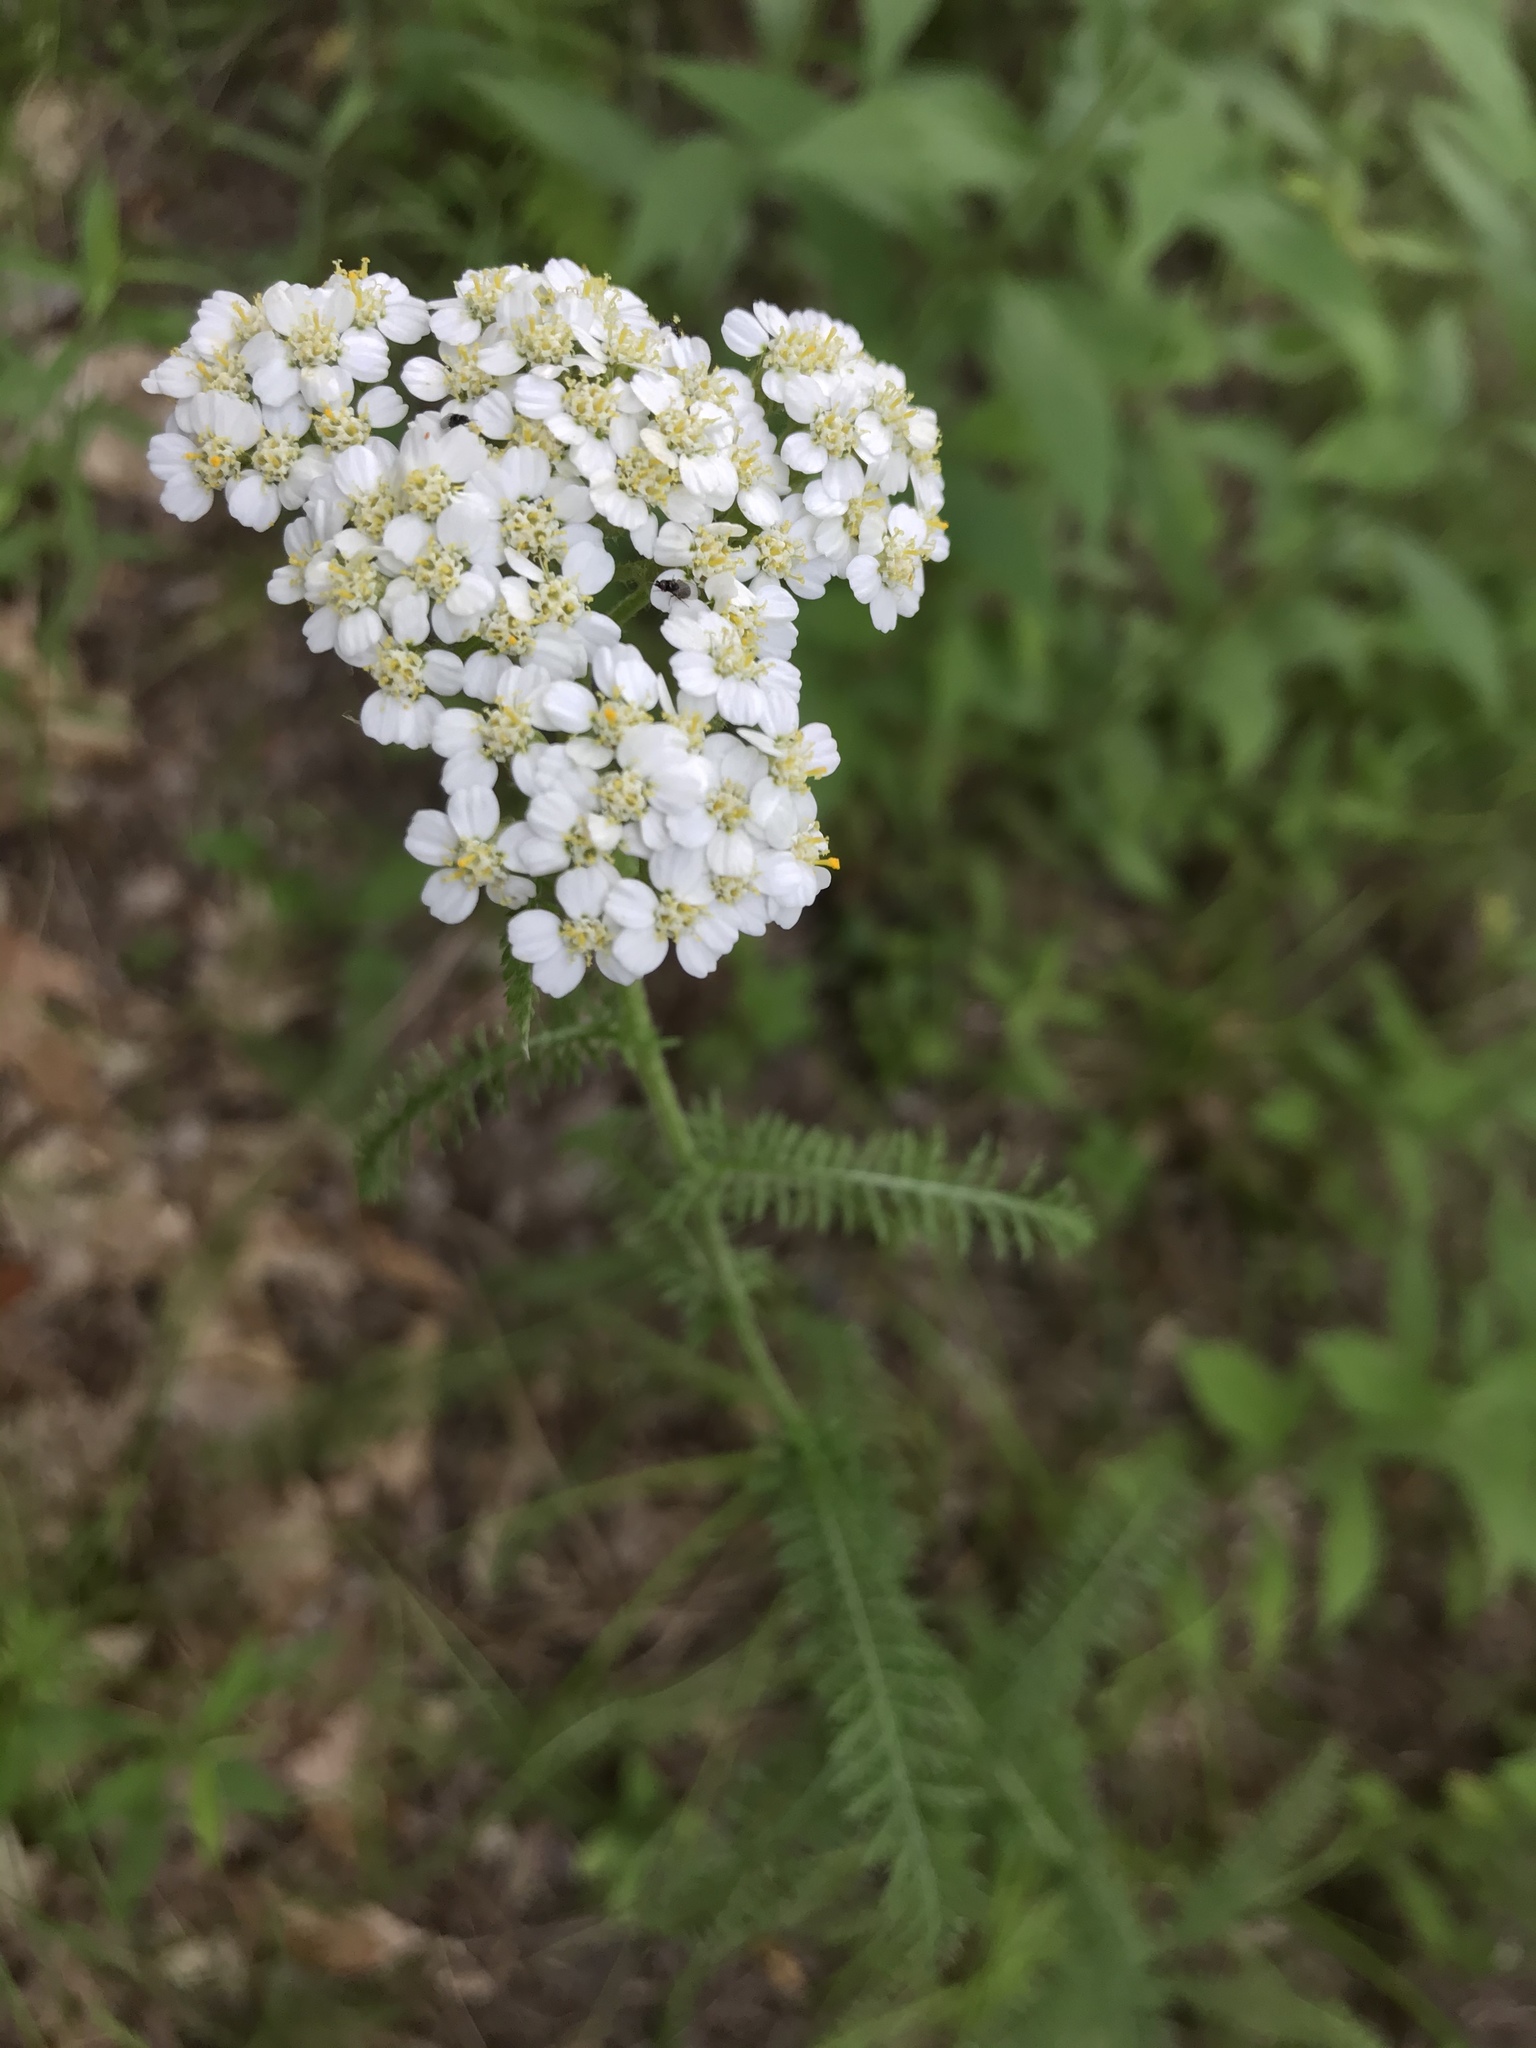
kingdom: Plantae
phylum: Tracheophyta
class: Magnoliopsida
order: Asterales
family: Asteraceae
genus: Achillea
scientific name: Achillea millefolium
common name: Yarrow
